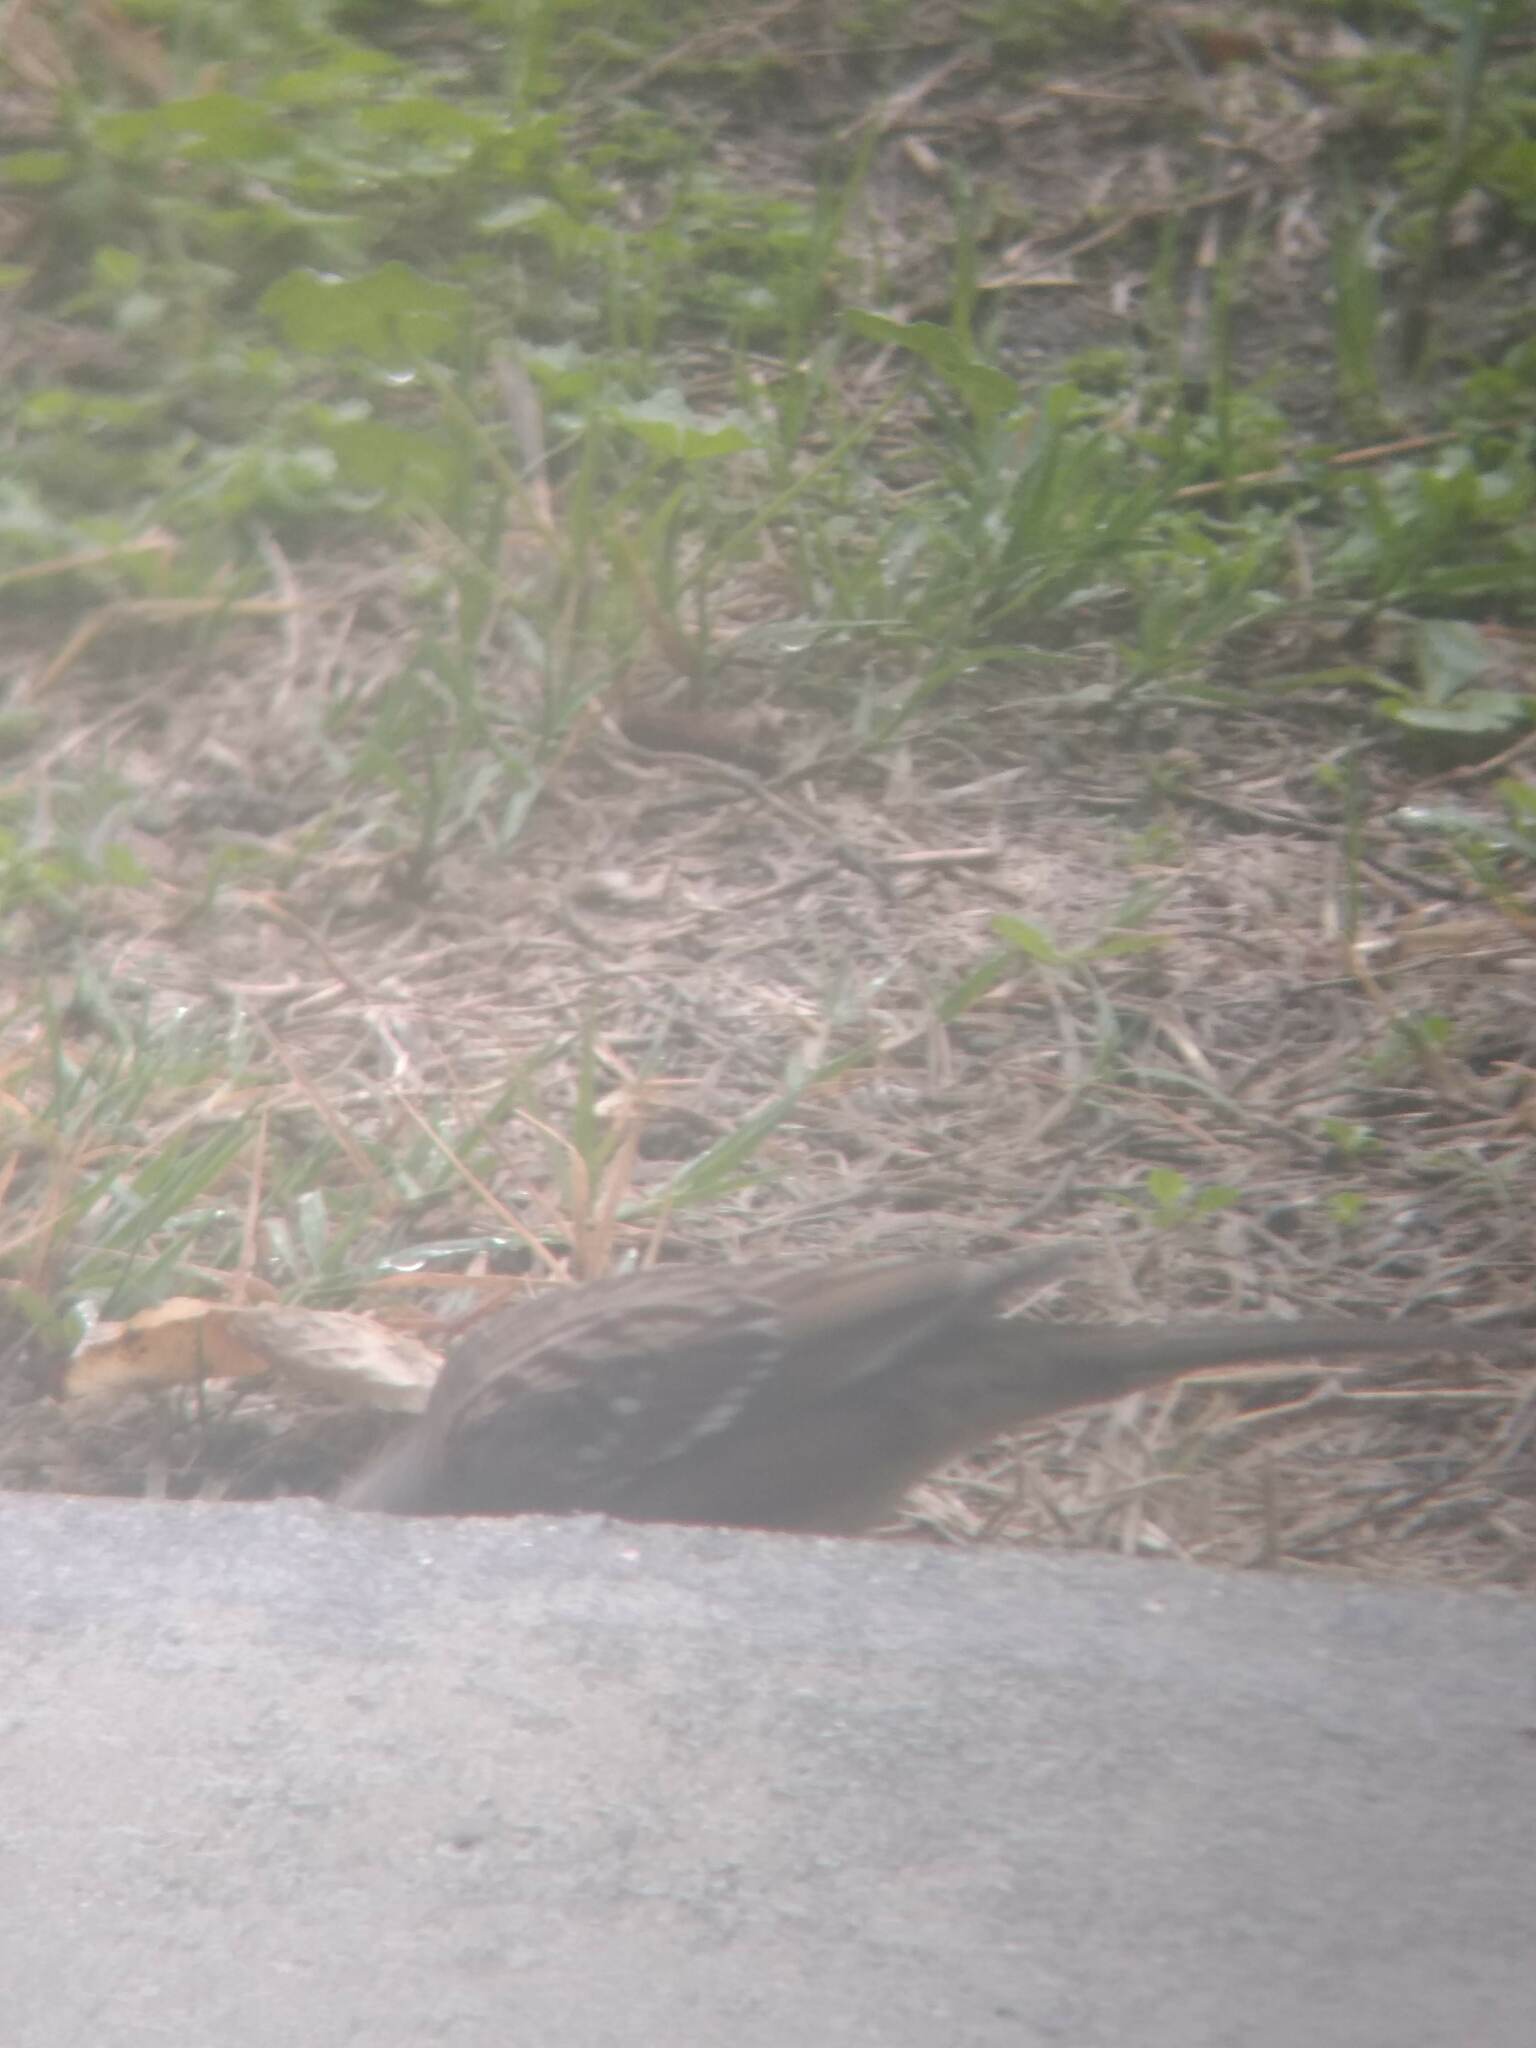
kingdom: Animalia
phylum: Chordata
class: Aves
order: Passeriformes
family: Passerellidae
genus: Zonotrichia
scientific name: Zonotrichia leucophrys
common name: White-crowned sparrow
